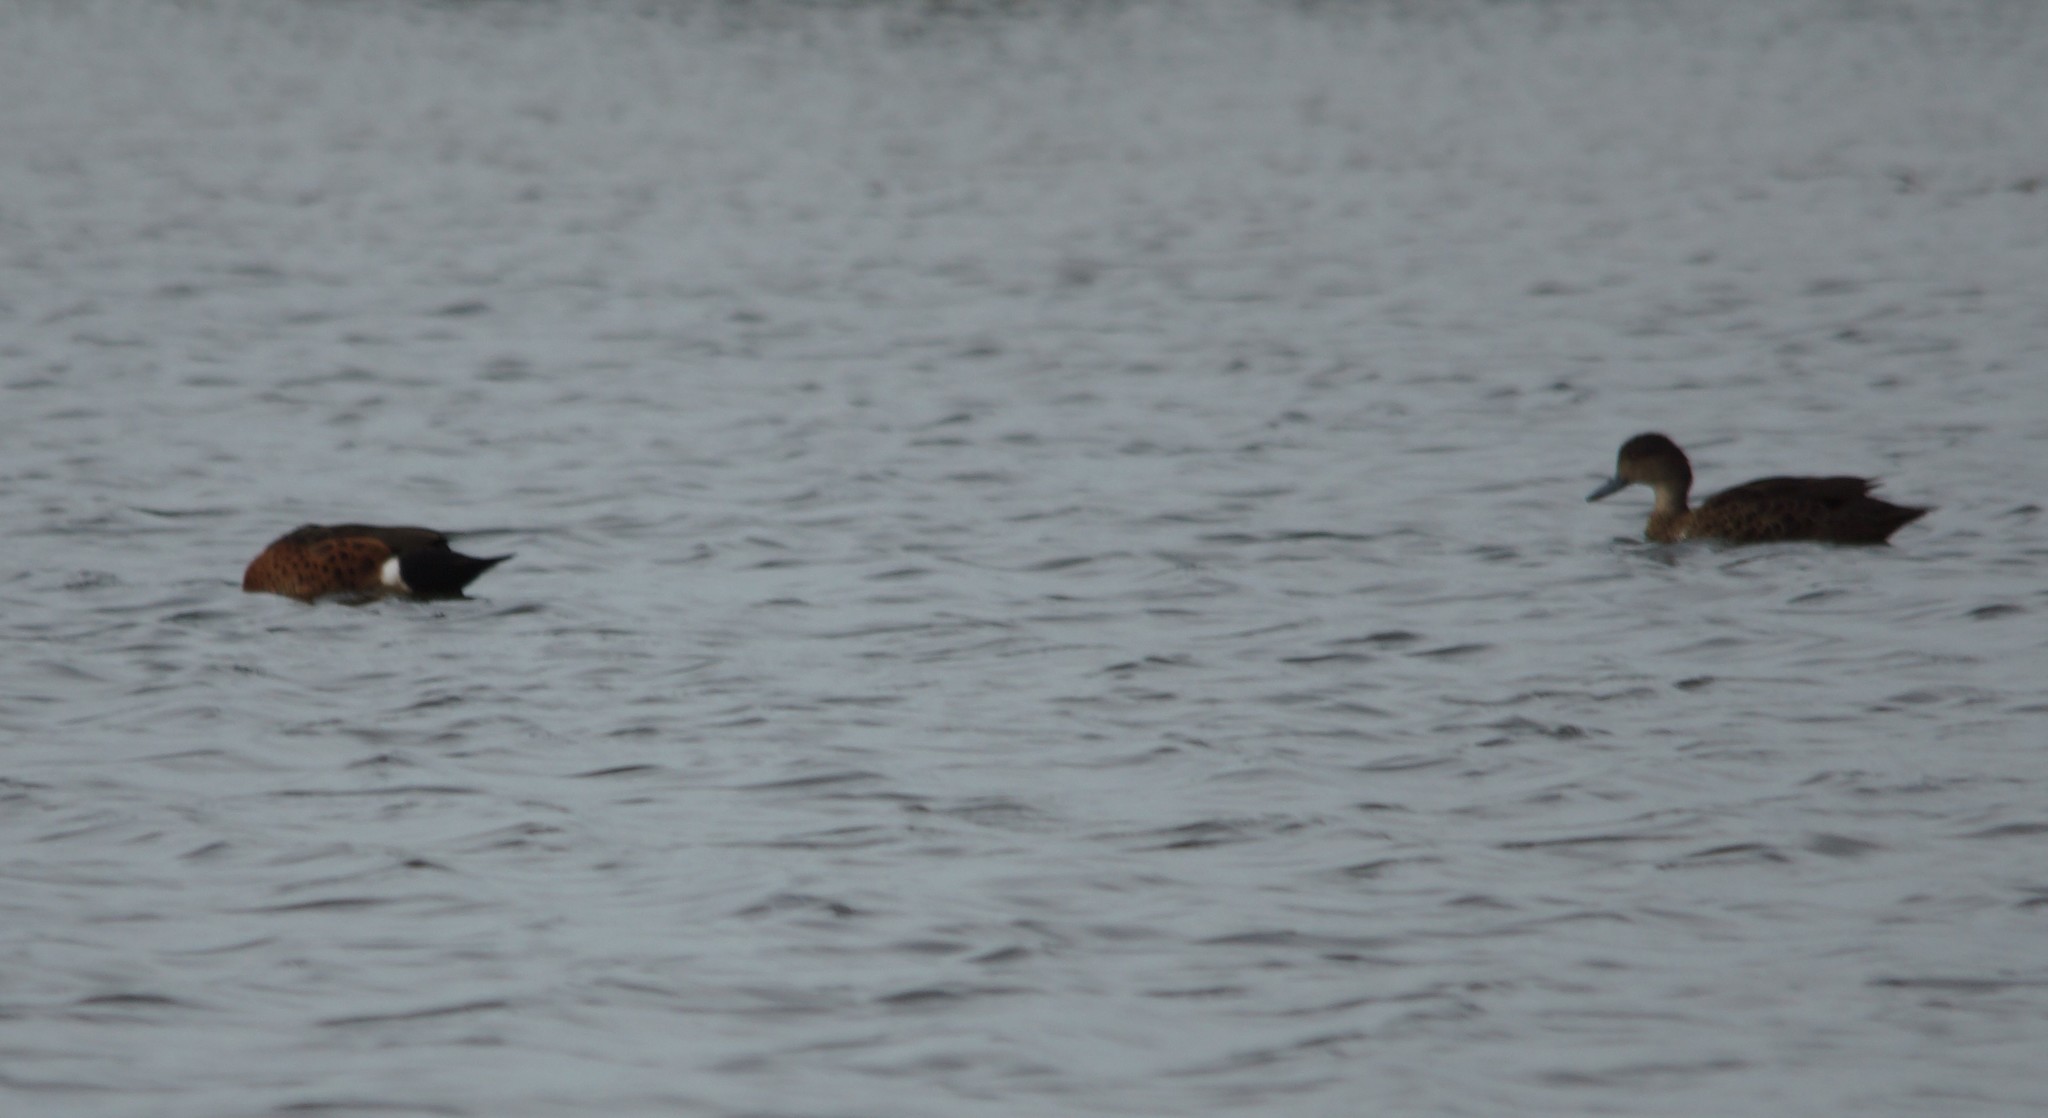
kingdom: Animalia
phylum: Chordata
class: Aves
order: Anseriformes
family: Anatidae
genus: Anas
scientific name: Anas castanea
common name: Chestnut teal
